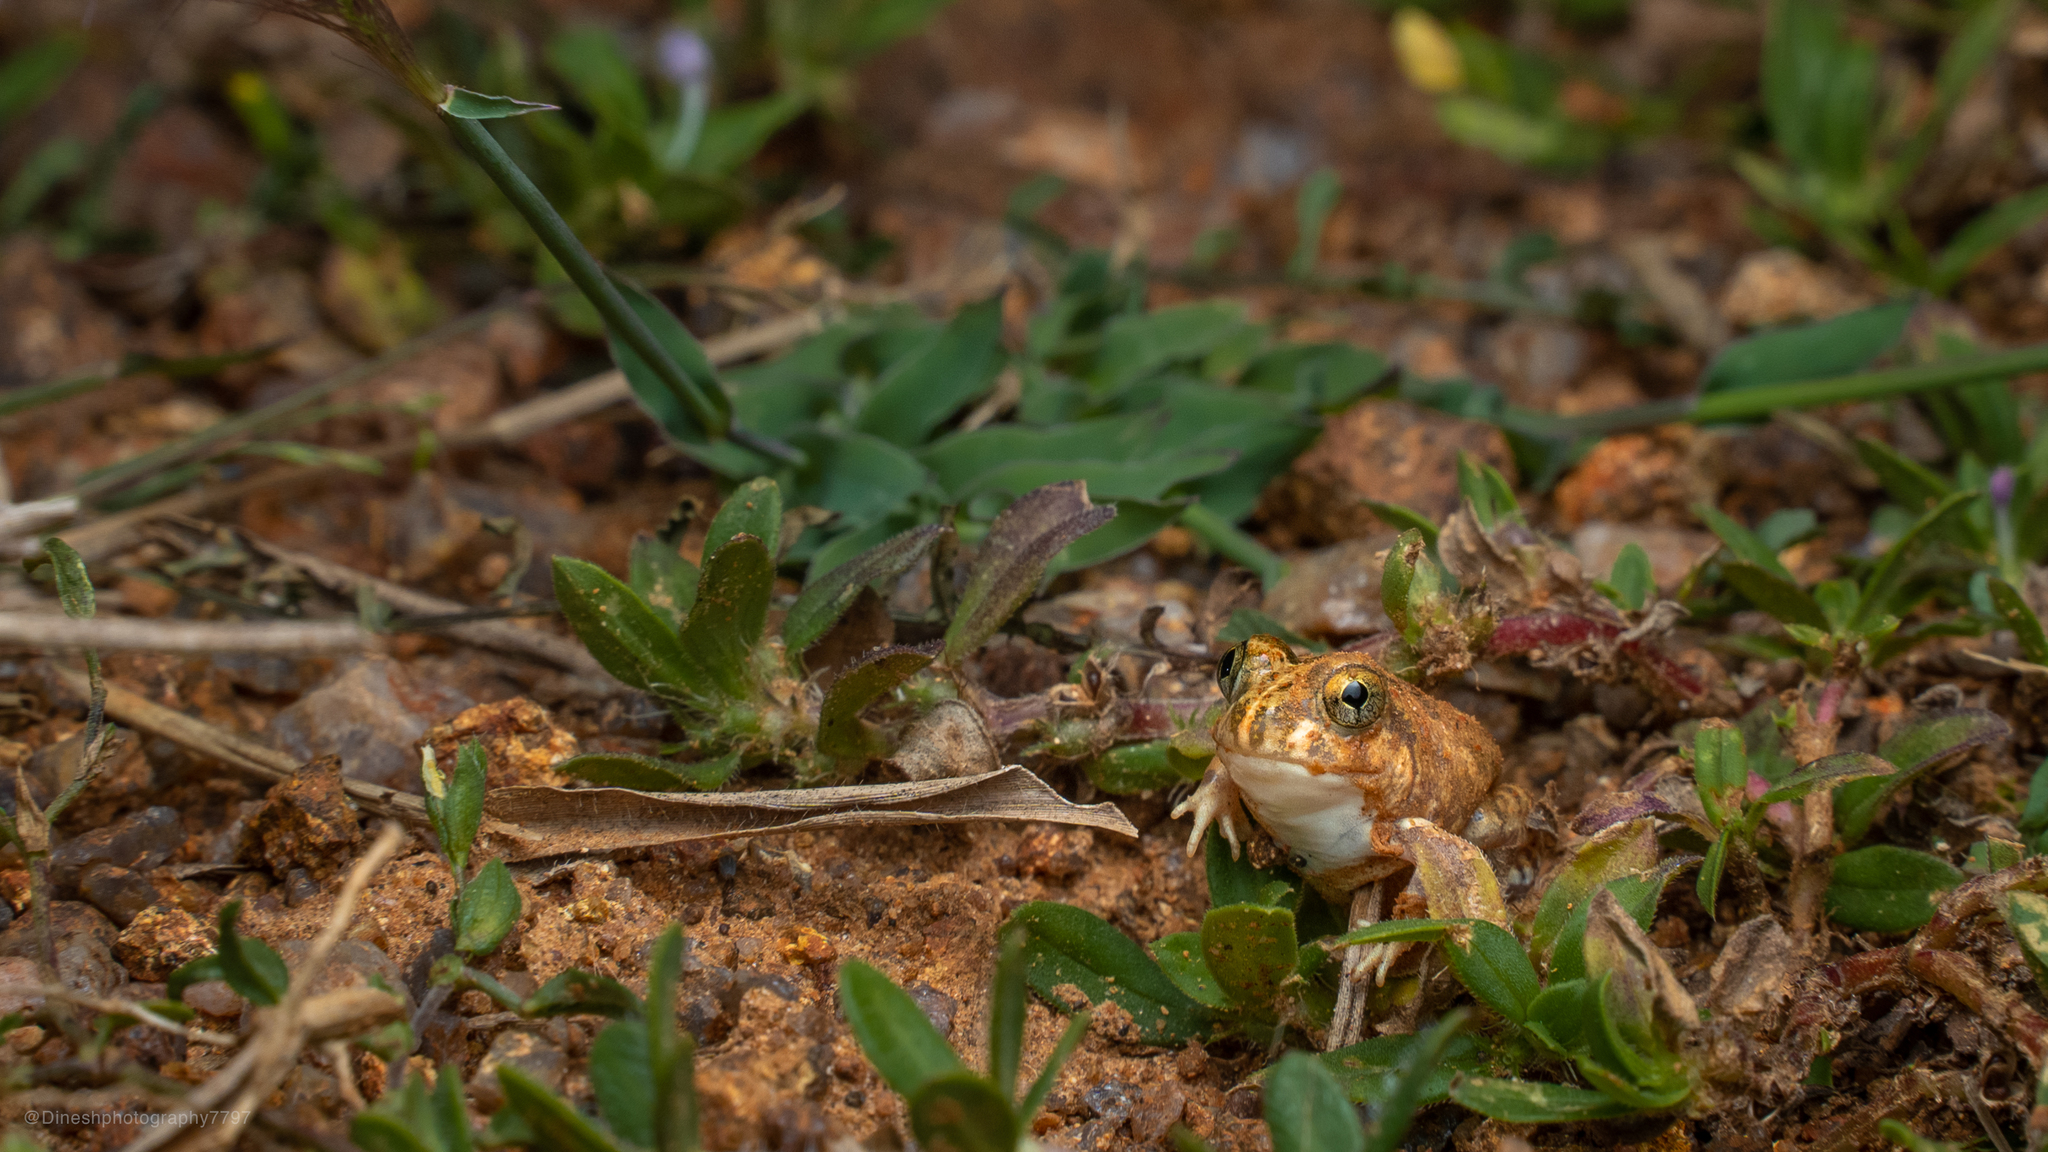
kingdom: Animalia
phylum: Chordata
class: Amphibia
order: Anura
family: Dicroglossidae
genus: Sphaerotheca
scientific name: Sphaerotheca breviceps
